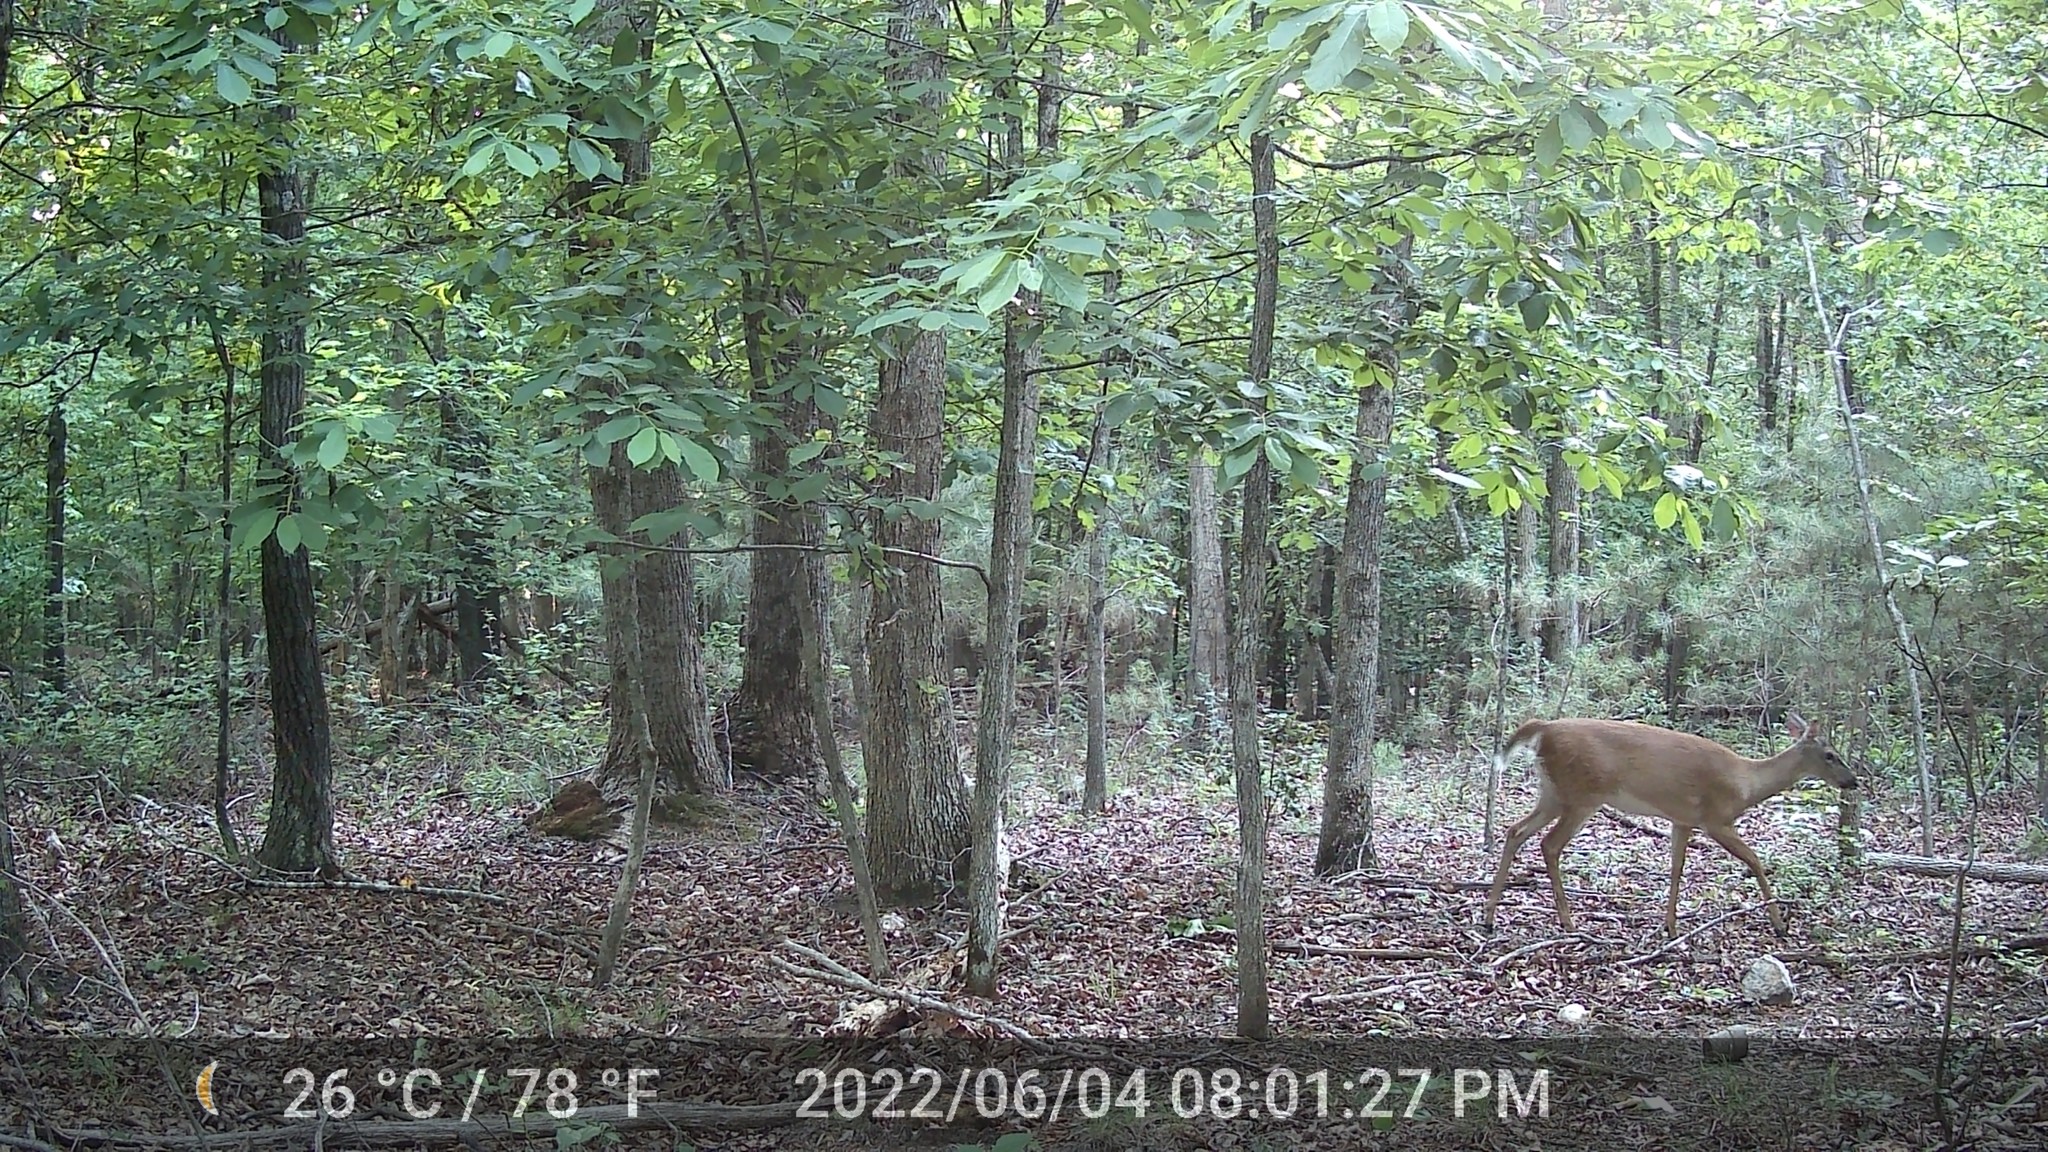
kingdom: Animalia
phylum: Chordata
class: Mammalia
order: Artiodactyla
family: Cervidae
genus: Odocoileus
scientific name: Odocoileus virginianus
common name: White-tailed deer
